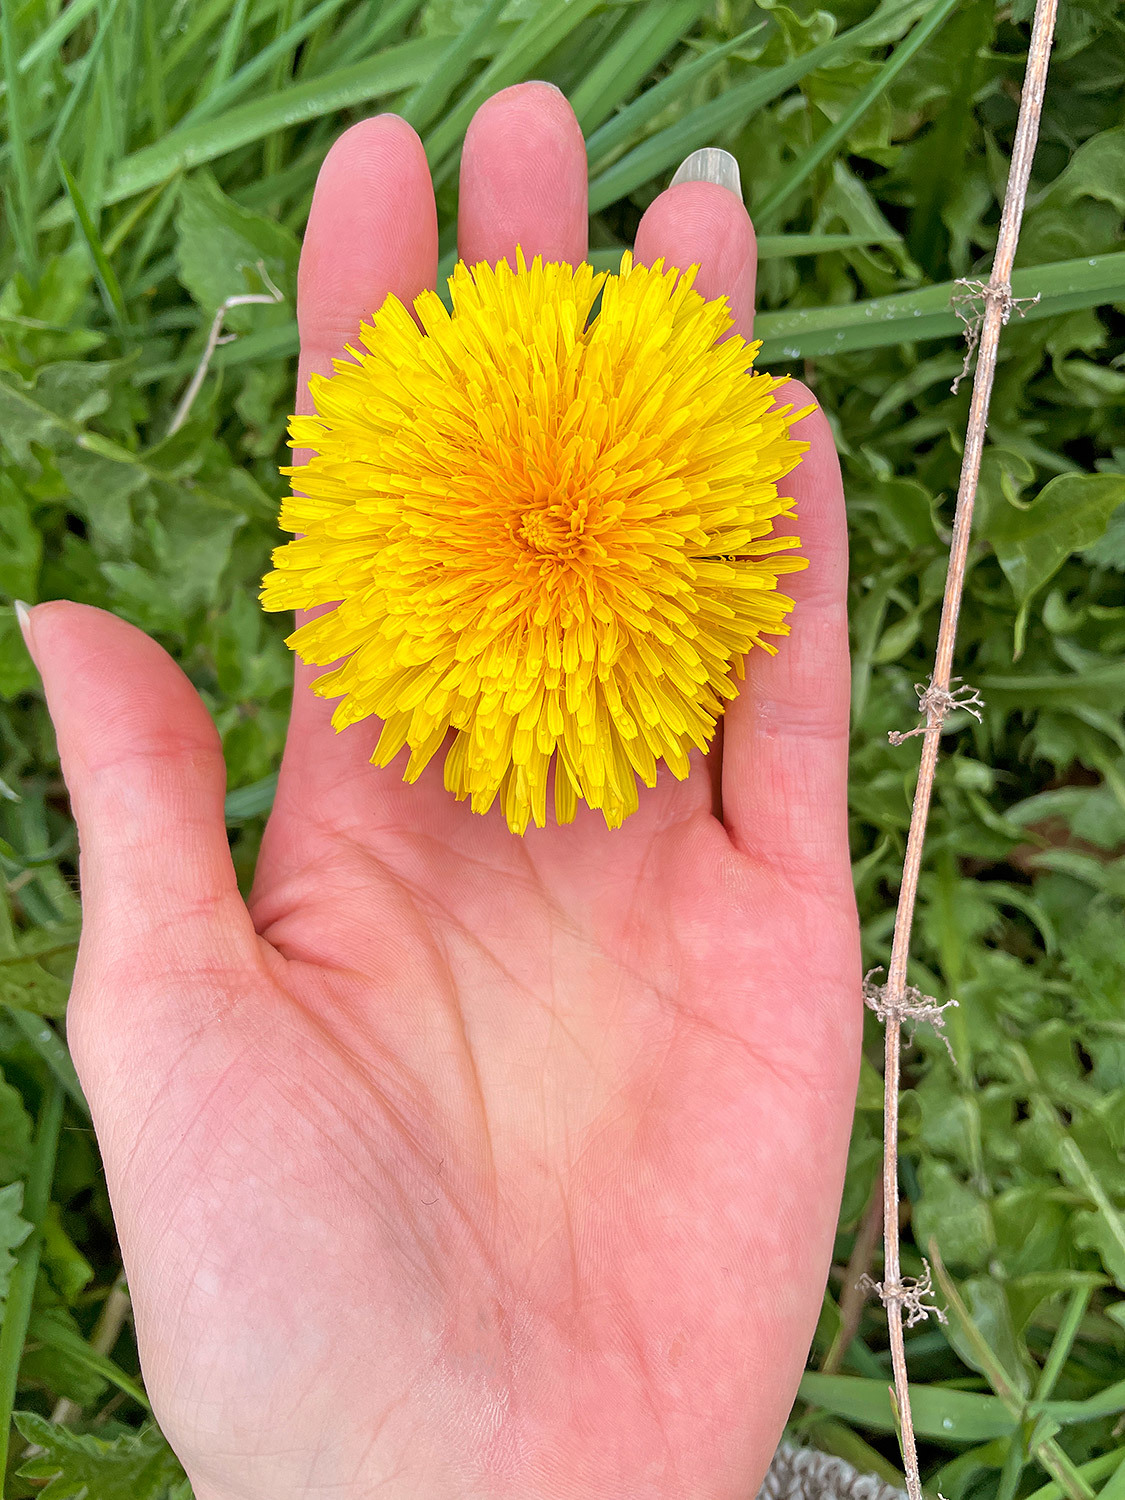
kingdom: Plantae
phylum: Tracheophyta
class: Magnoliopsida
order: Asterales
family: Asteraceae
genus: Taraxacum
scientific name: Taraxacum officinale
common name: Common dandelion
